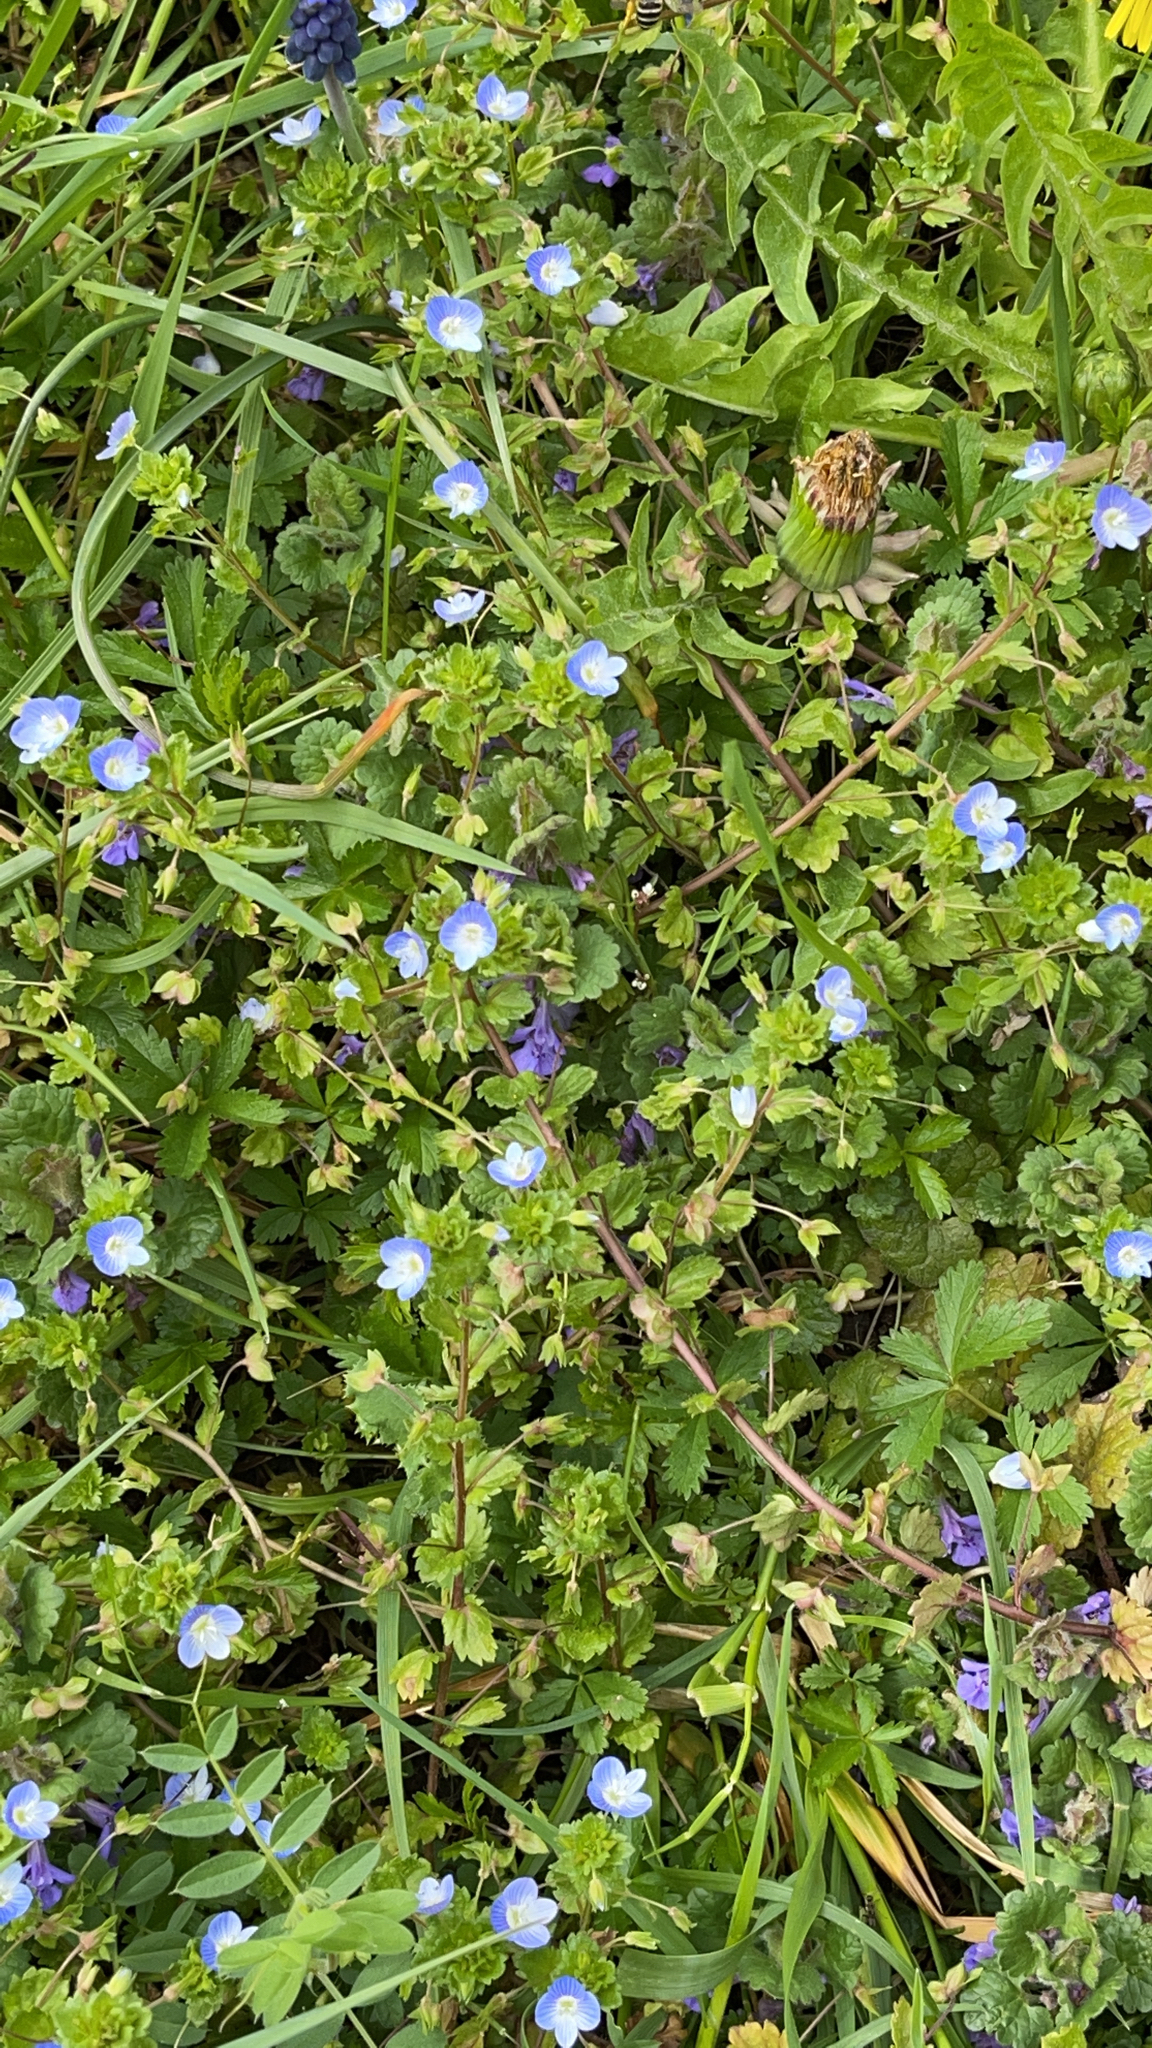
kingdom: Plantae
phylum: Tracheophyta
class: Magnoliopsida
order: Lamiales
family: Plantaginaceae
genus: Veronica
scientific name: Veronica persica
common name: Common field-speedwell
